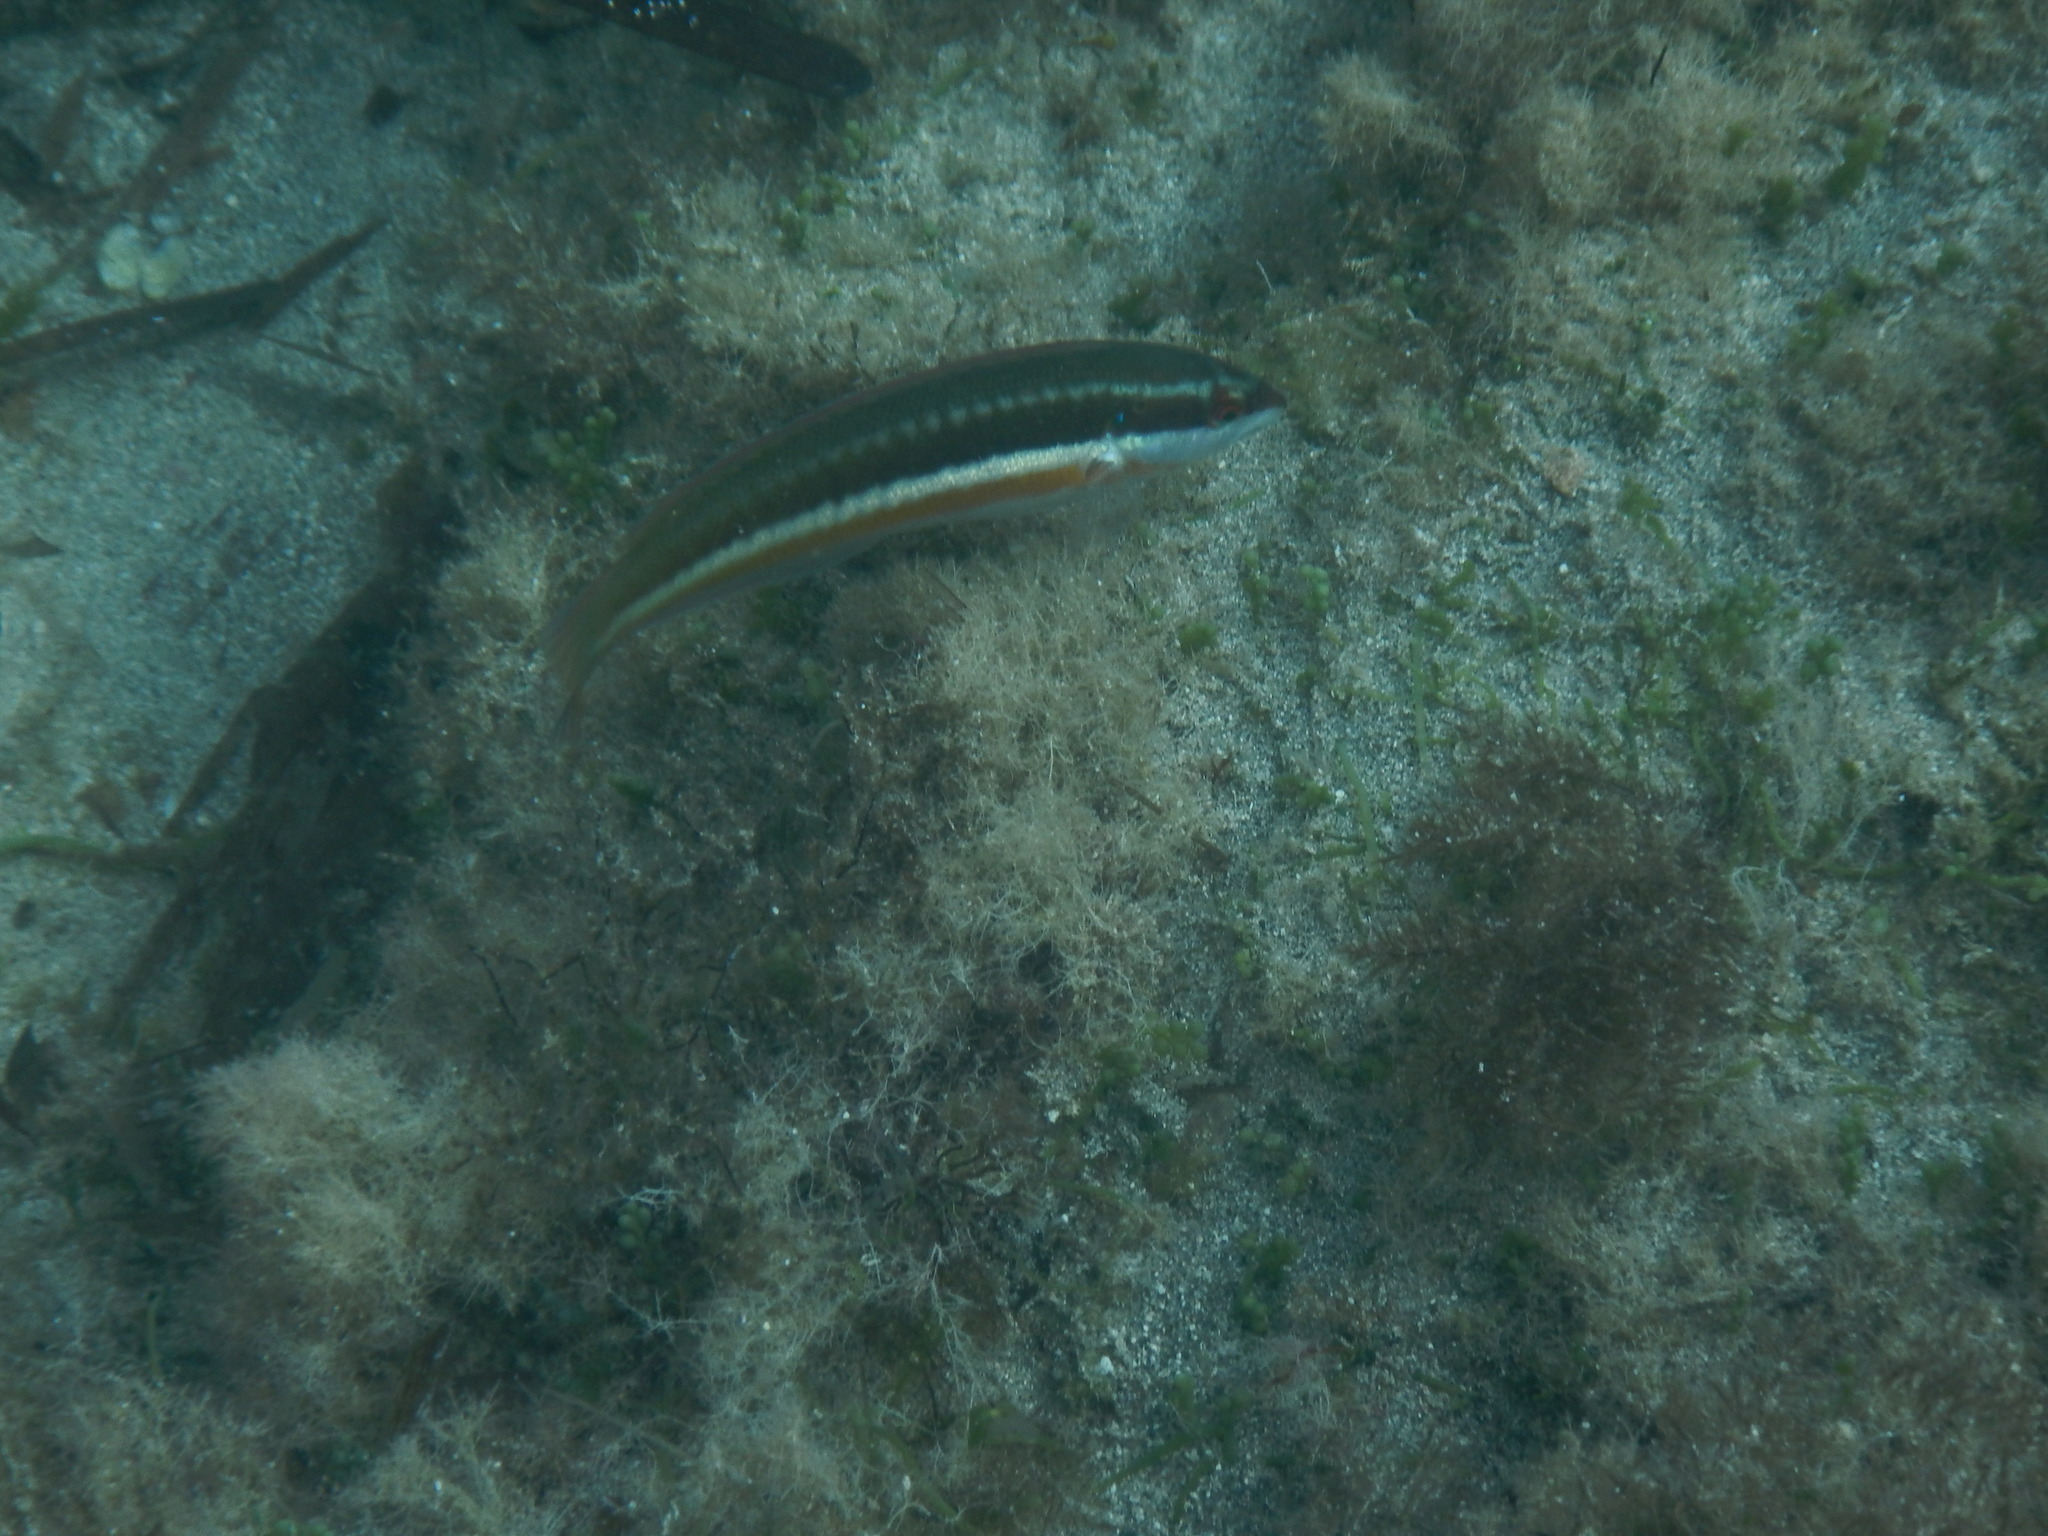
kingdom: Animalia
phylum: Chordata
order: Perciformes
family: Labridae
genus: Coris
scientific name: Coris julis
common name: Rainbow wrasse
